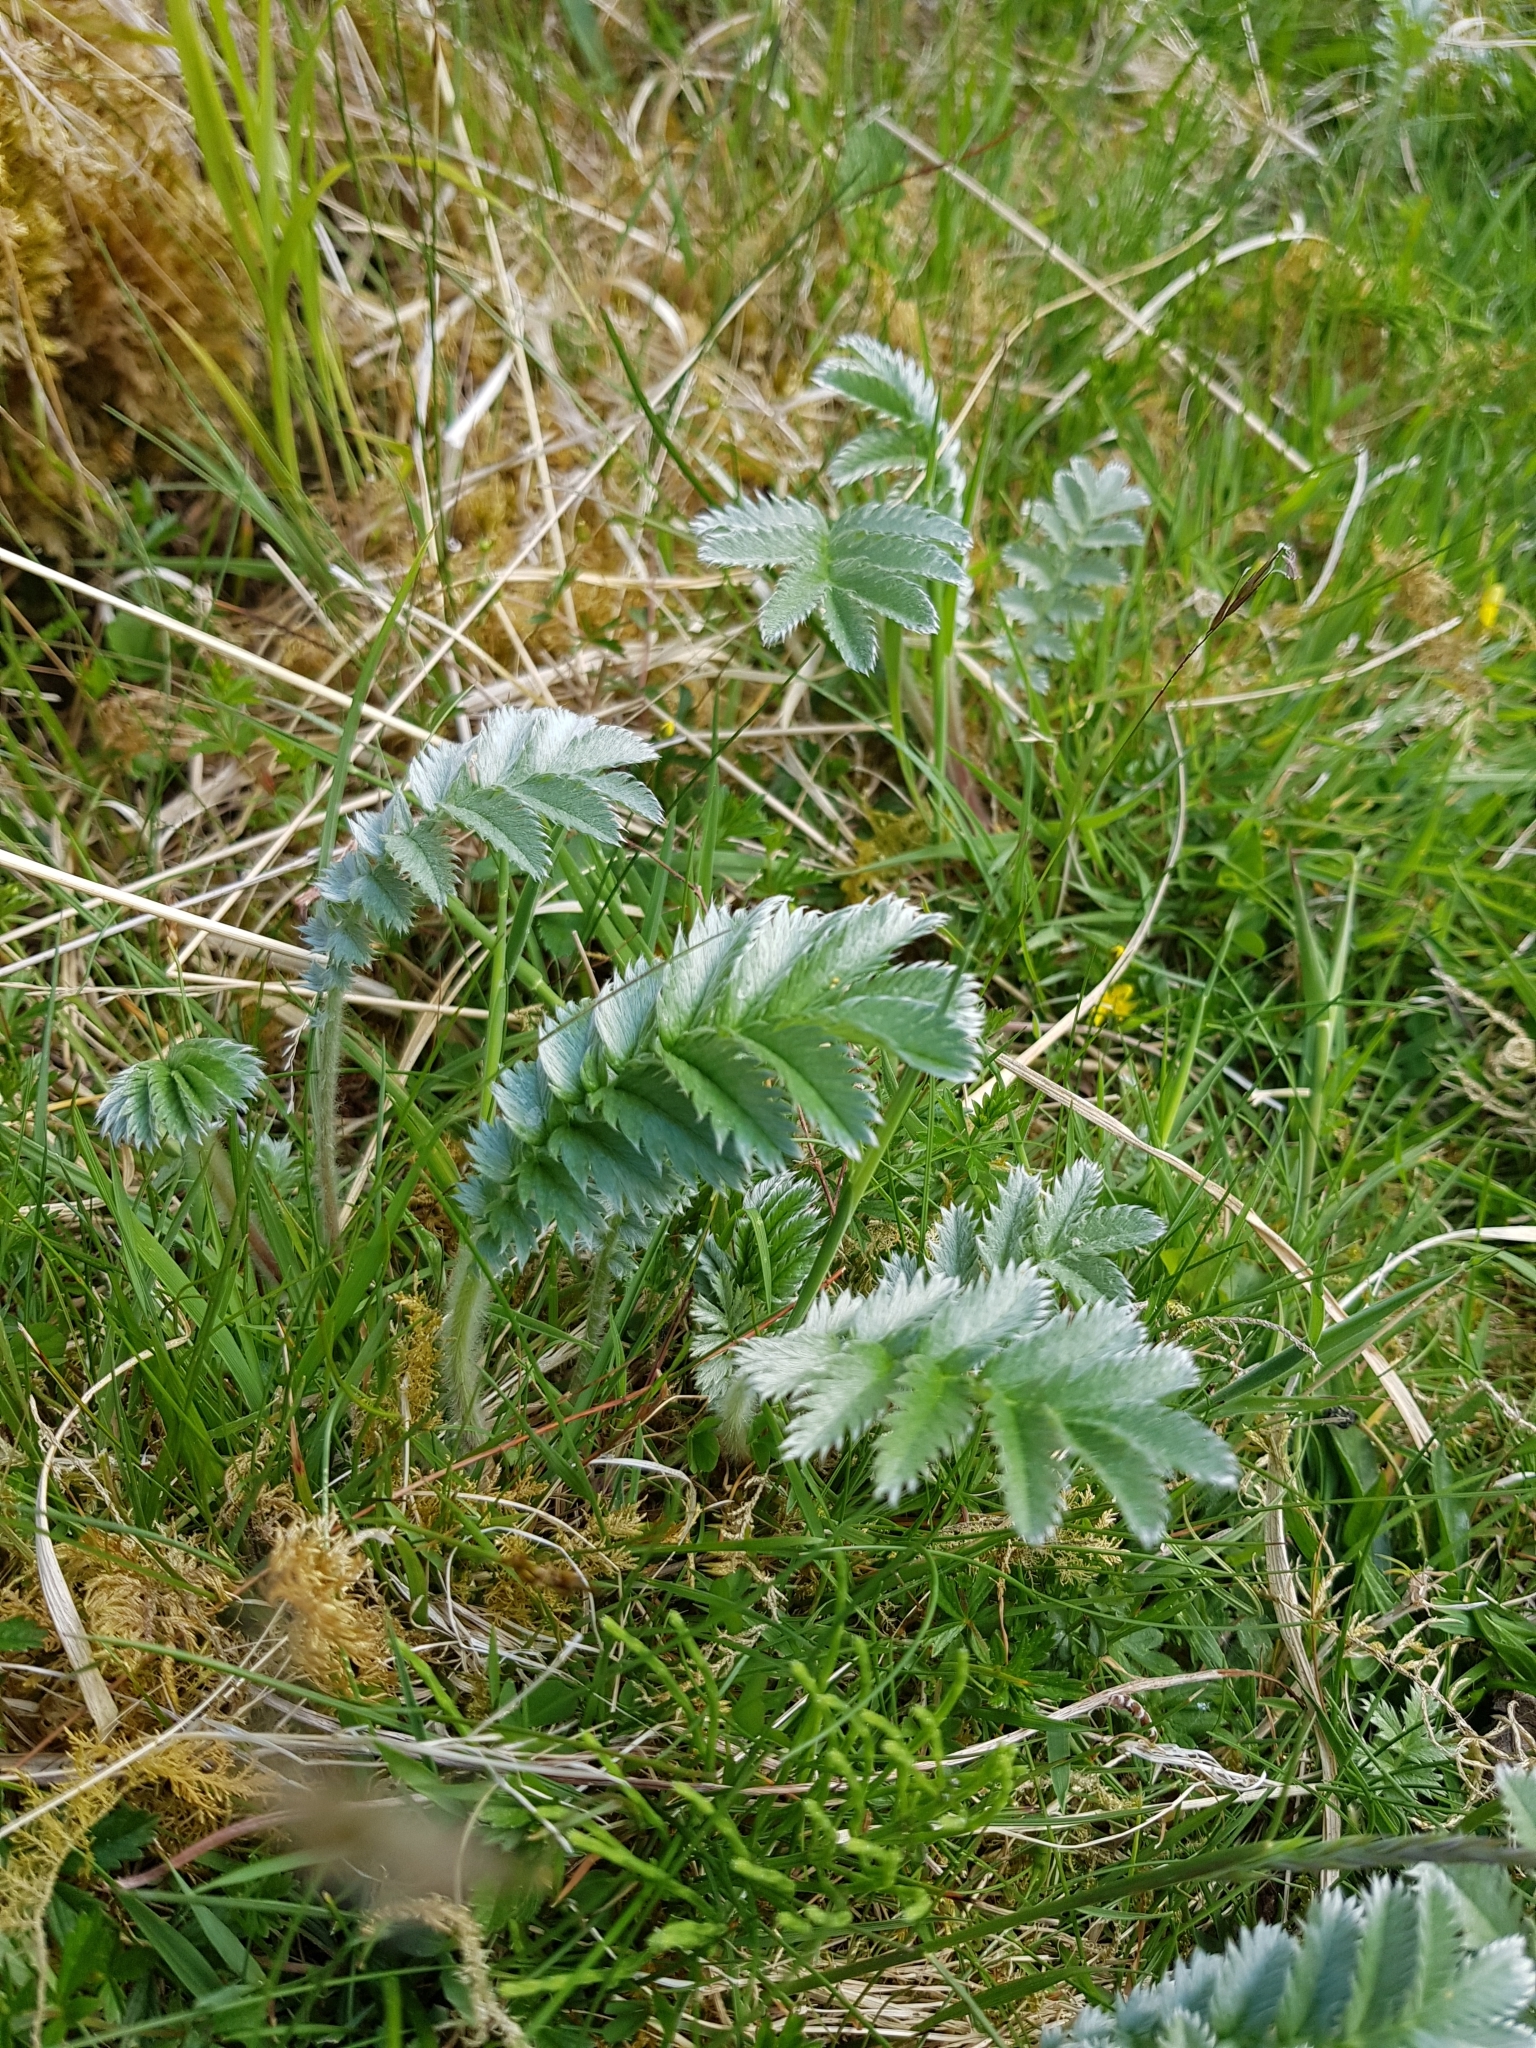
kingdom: Plantae
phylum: Tracheophyta
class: Magnoliopsida
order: Rosales
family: Rosaceae
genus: Argentina
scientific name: Argentina anserina
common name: Common silverweed
